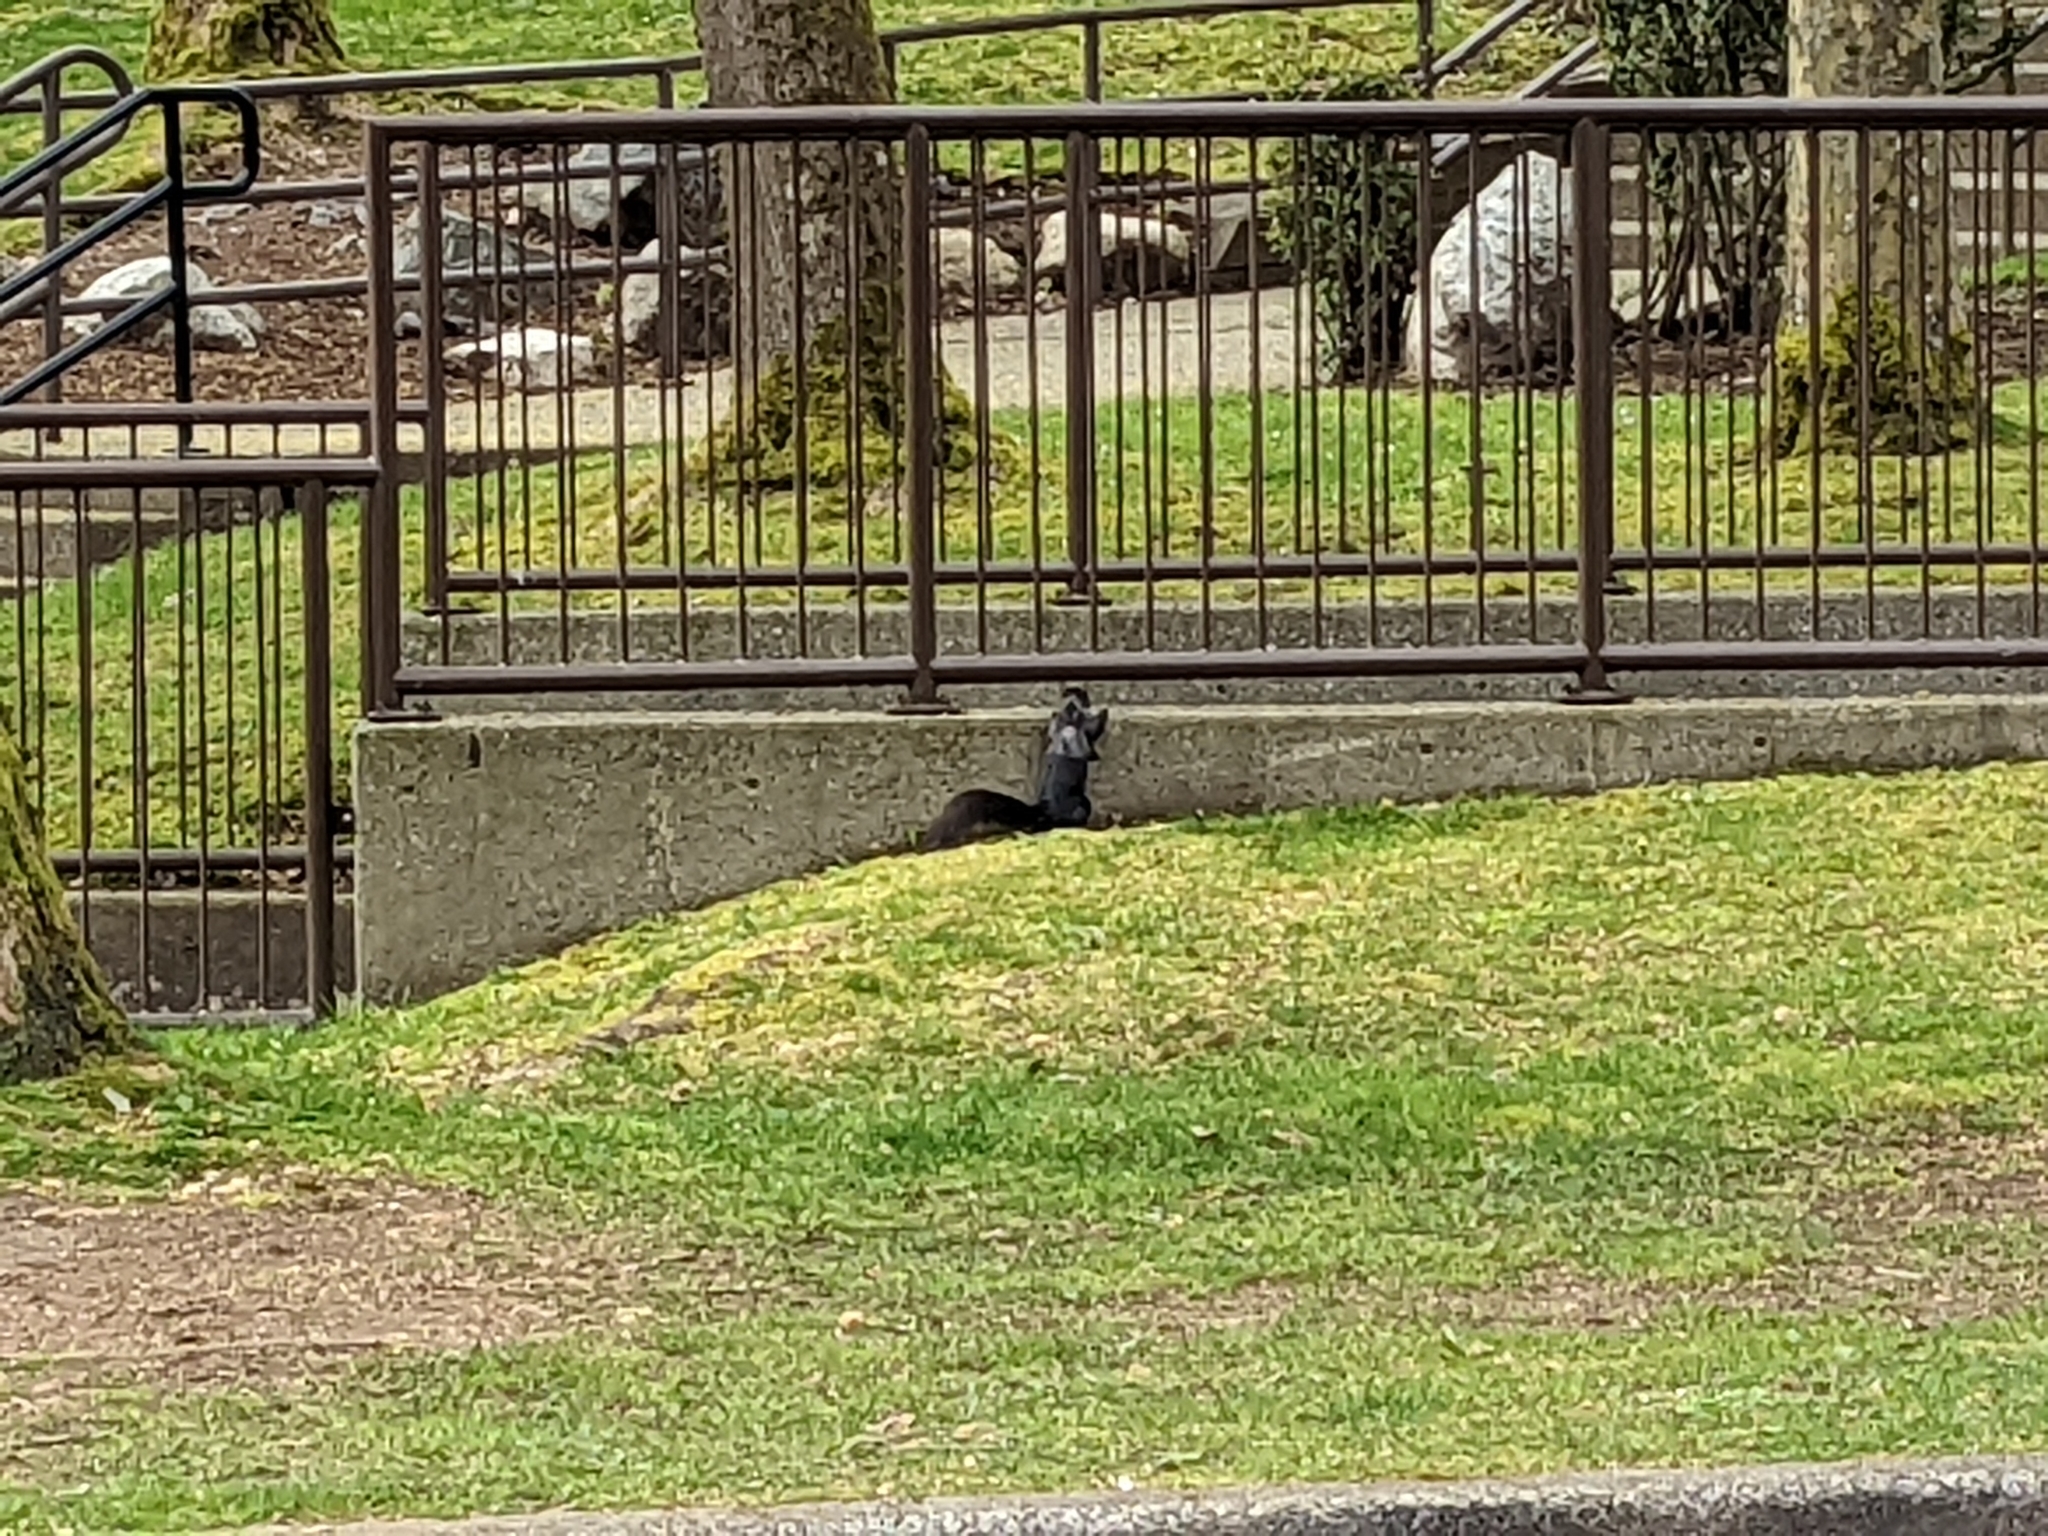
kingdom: Animalia
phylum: Chordata
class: Mammalia
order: Rodentia
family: Sciuridae
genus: Sciurus
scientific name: Sciurus carolinensis
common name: Eastern gray squirrel
